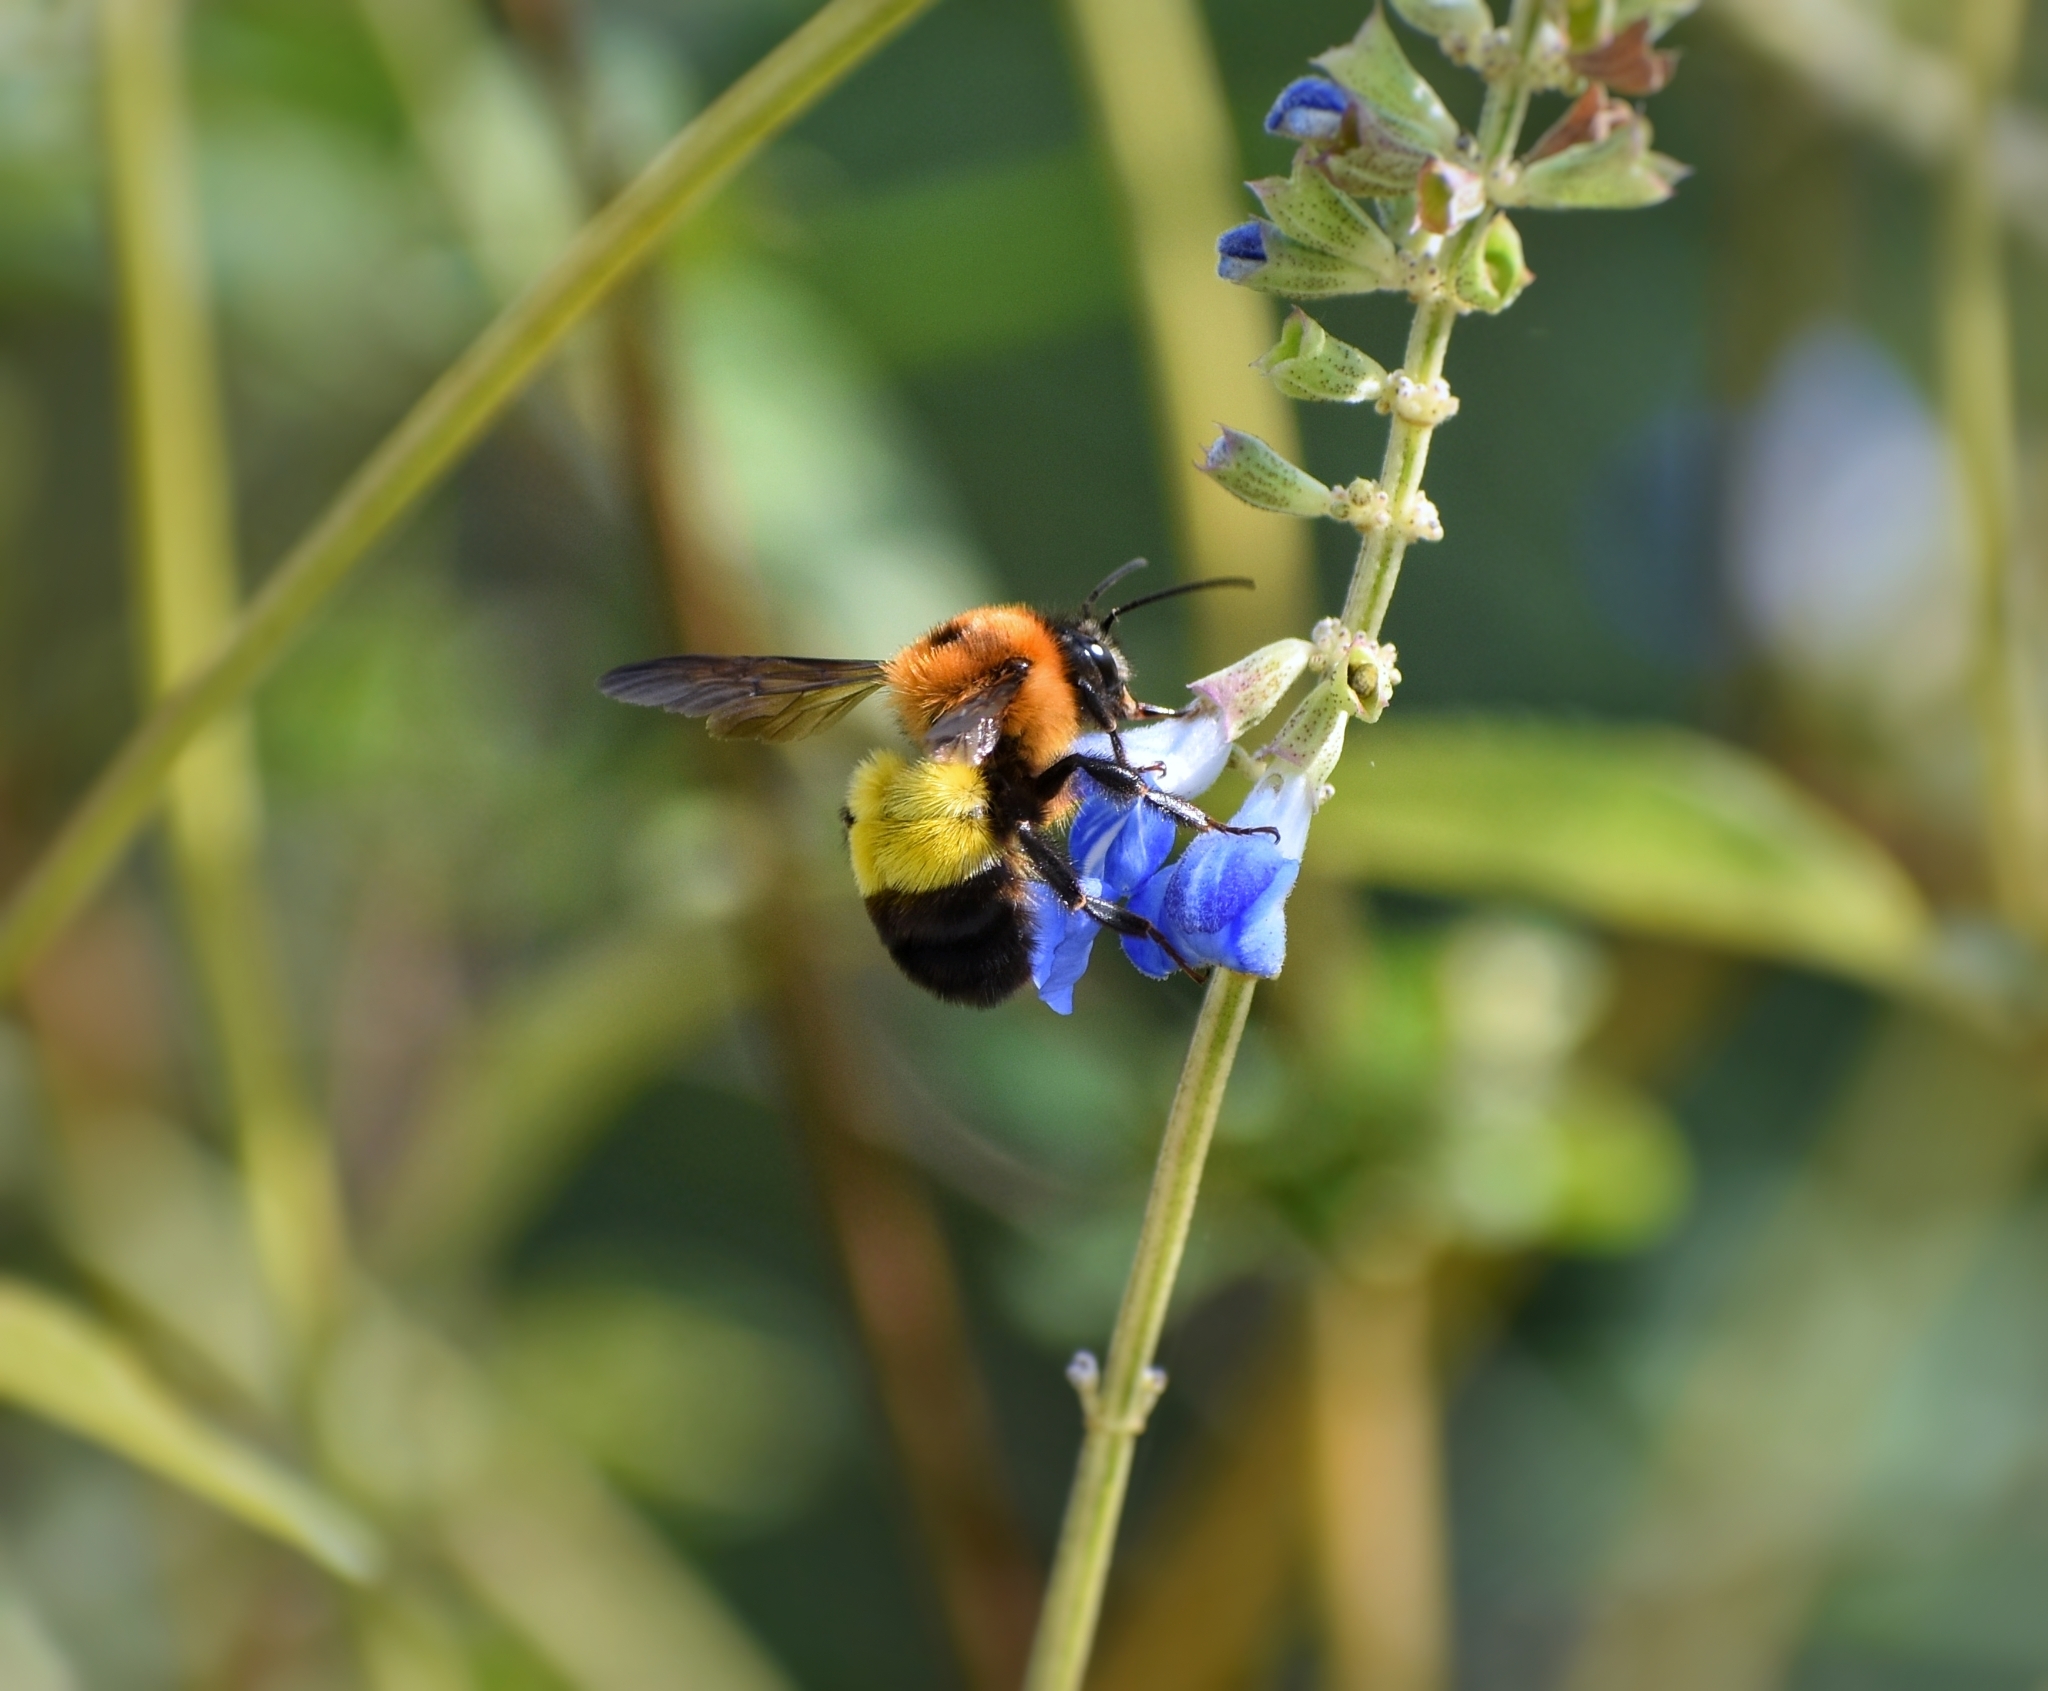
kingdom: Animalia
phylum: Arthropoda
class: Insecta
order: Hymenoptera
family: Apidae
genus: Bombus
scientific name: Bombus breviceps
